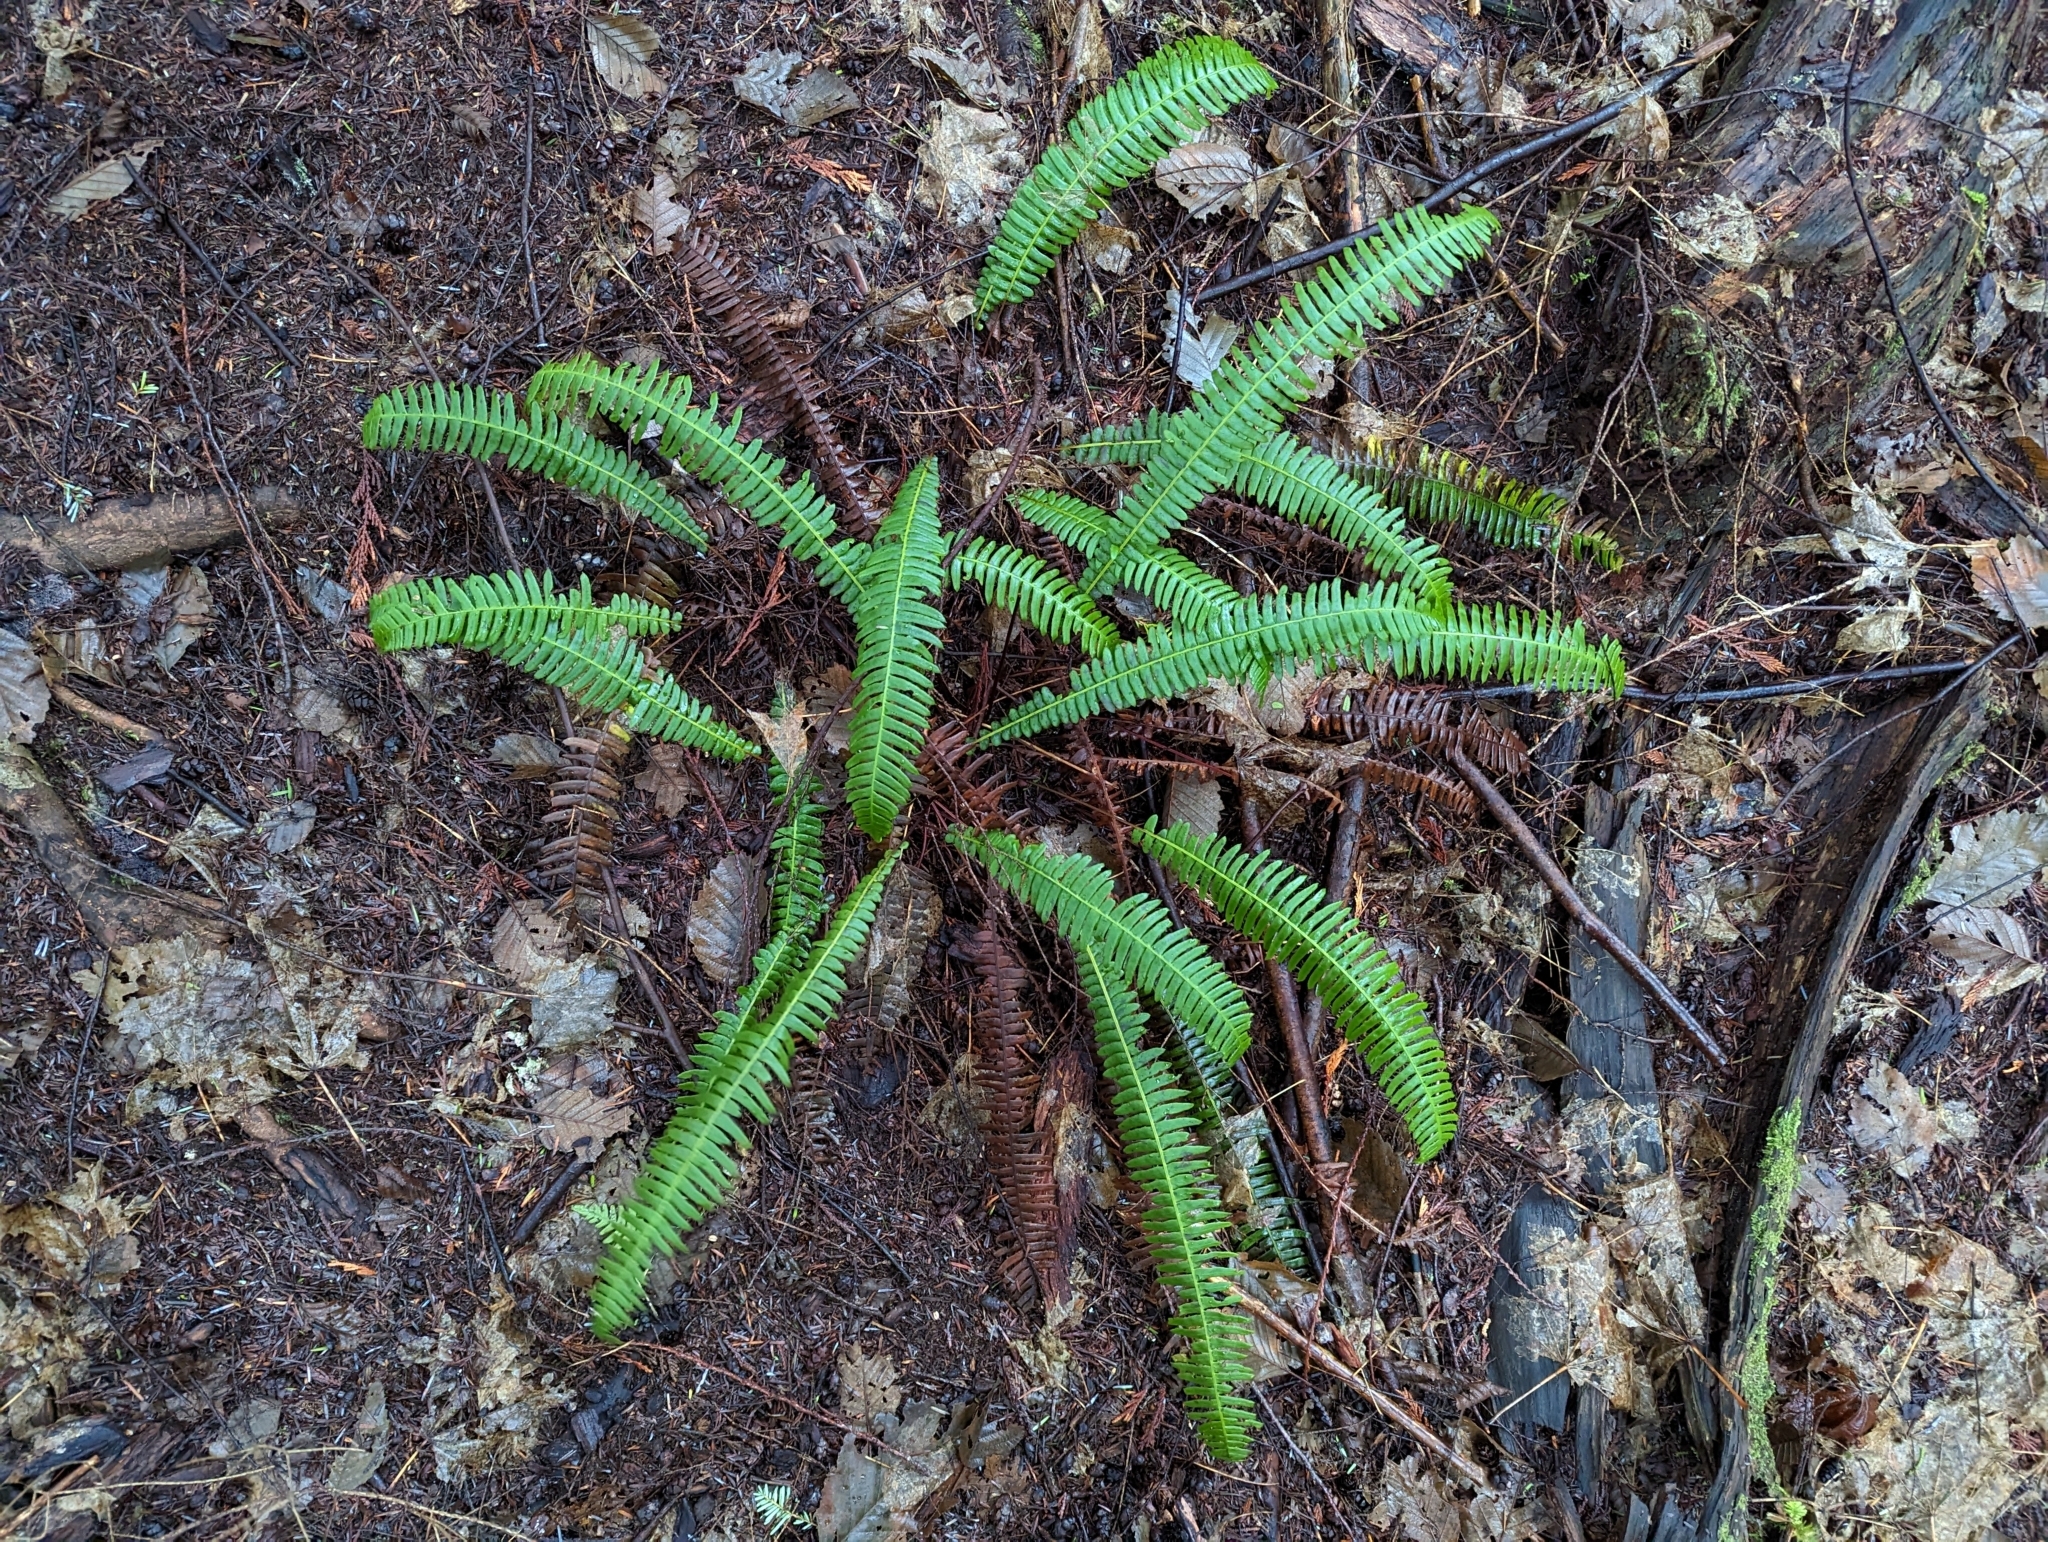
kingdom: Plantae
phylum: Tracheophyta
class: Polypodiopsida
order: Polypodiales
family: Blechnaceae
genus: Struthiopteris
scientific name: Struthiopteris spicant
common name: Deer fern
